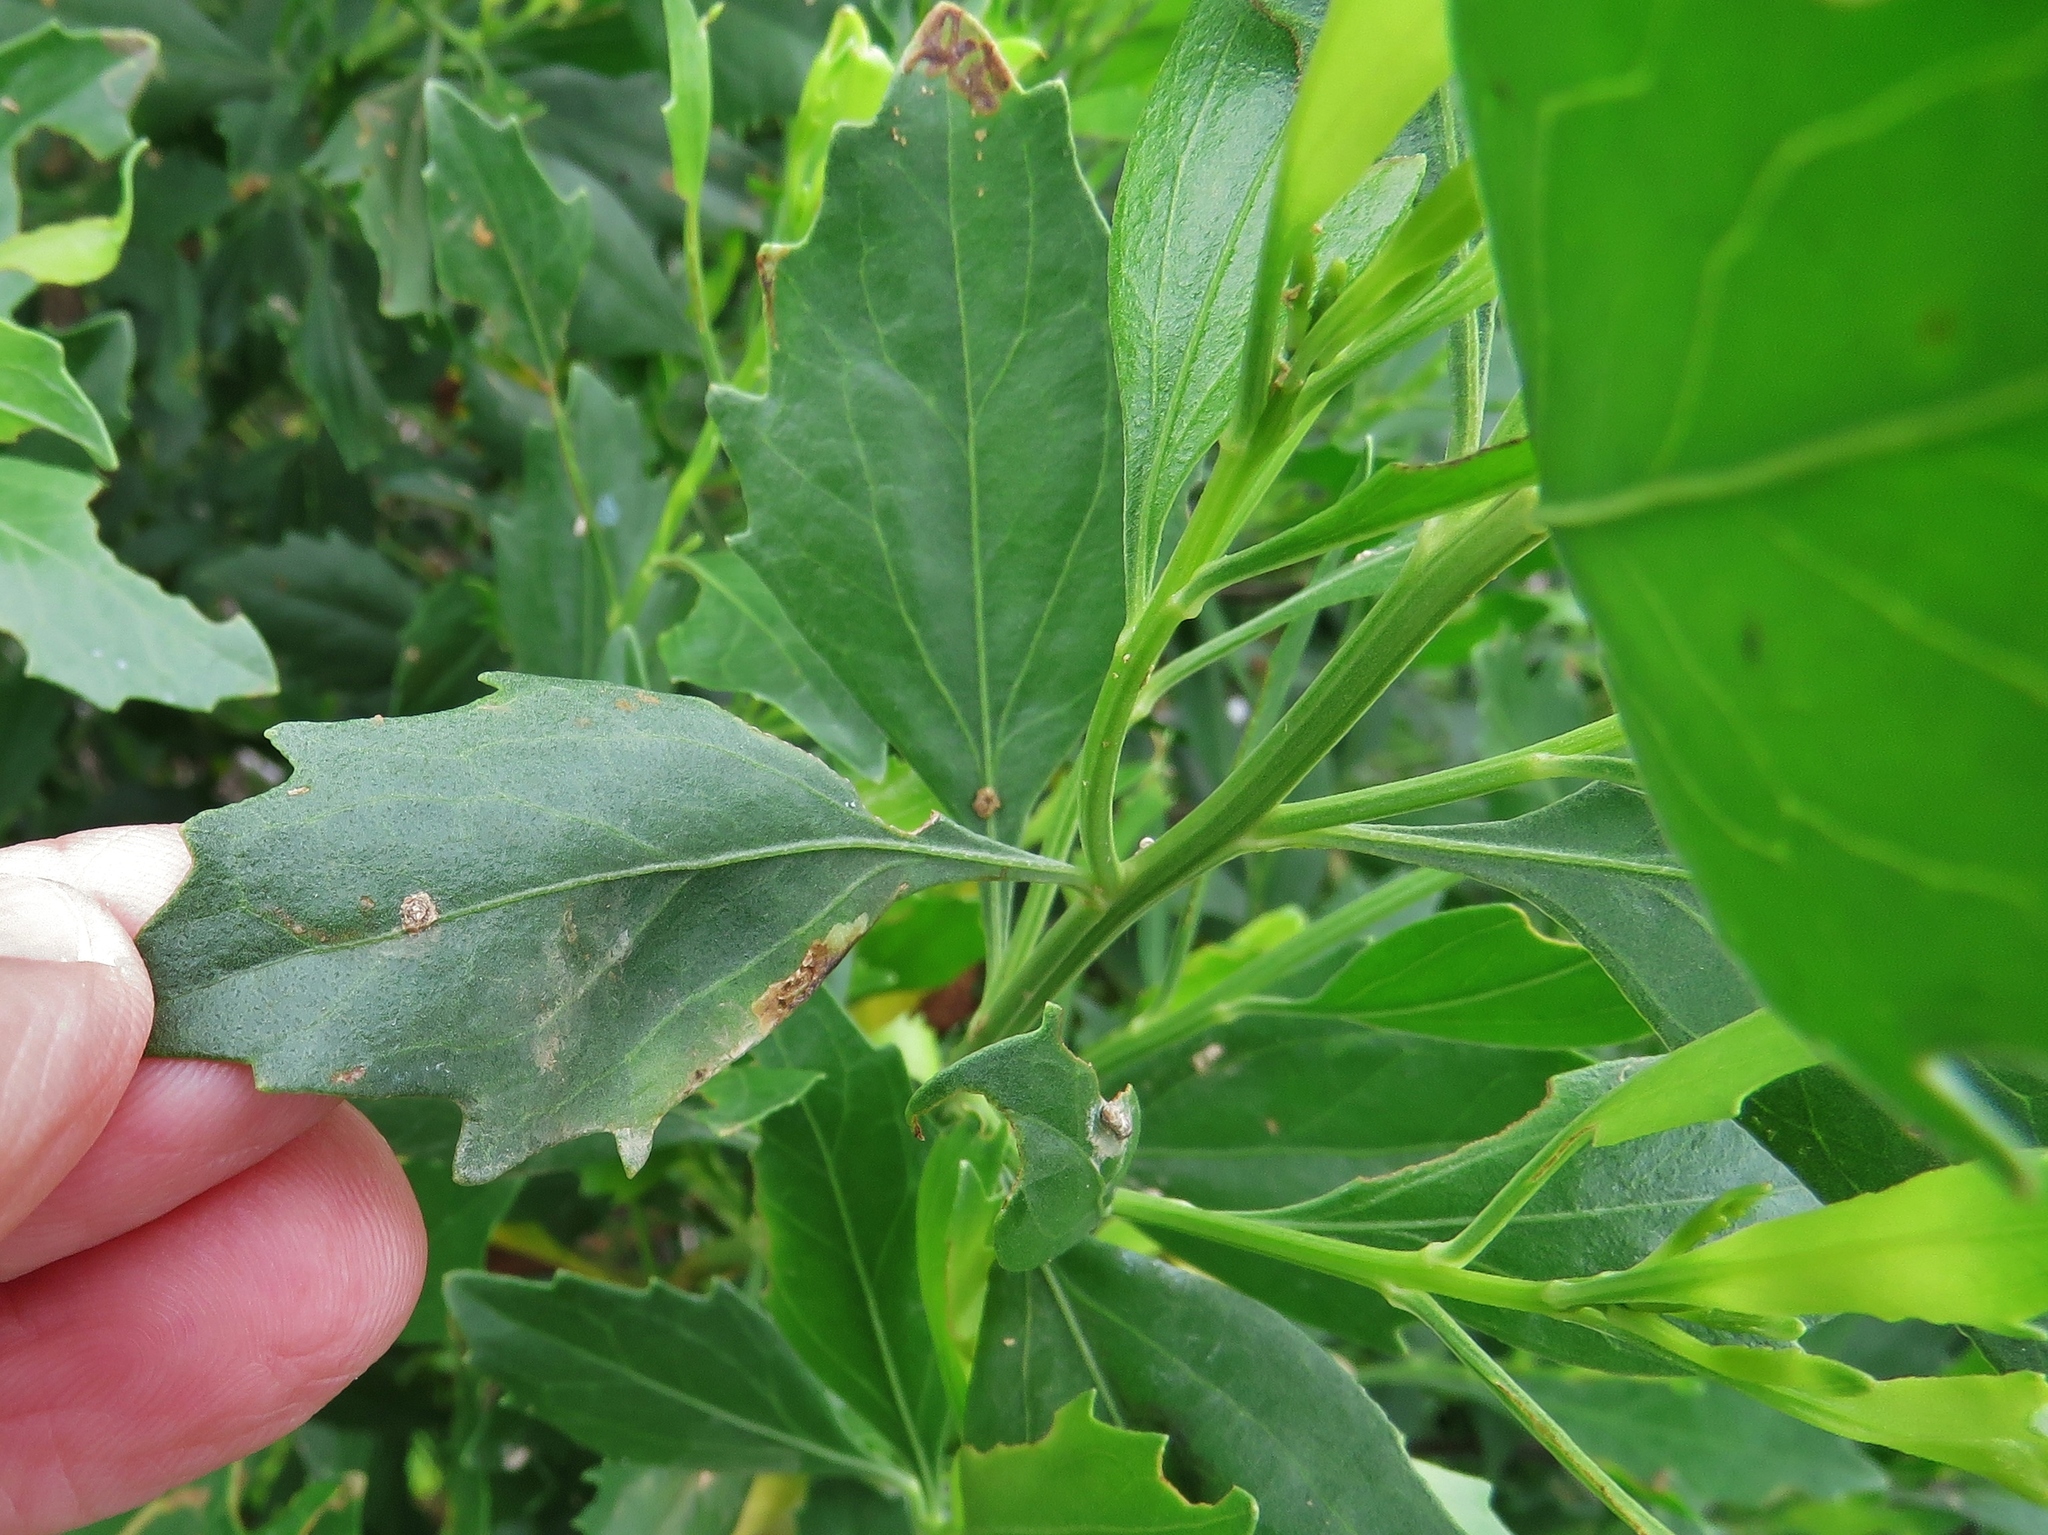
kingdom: Plantae
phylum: Tracheophyta
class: Magnoliopsida
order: Asterales
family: Asteraceae
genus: Baccharis
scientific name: Baccharis halimifolia
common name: Eastern baccharis
